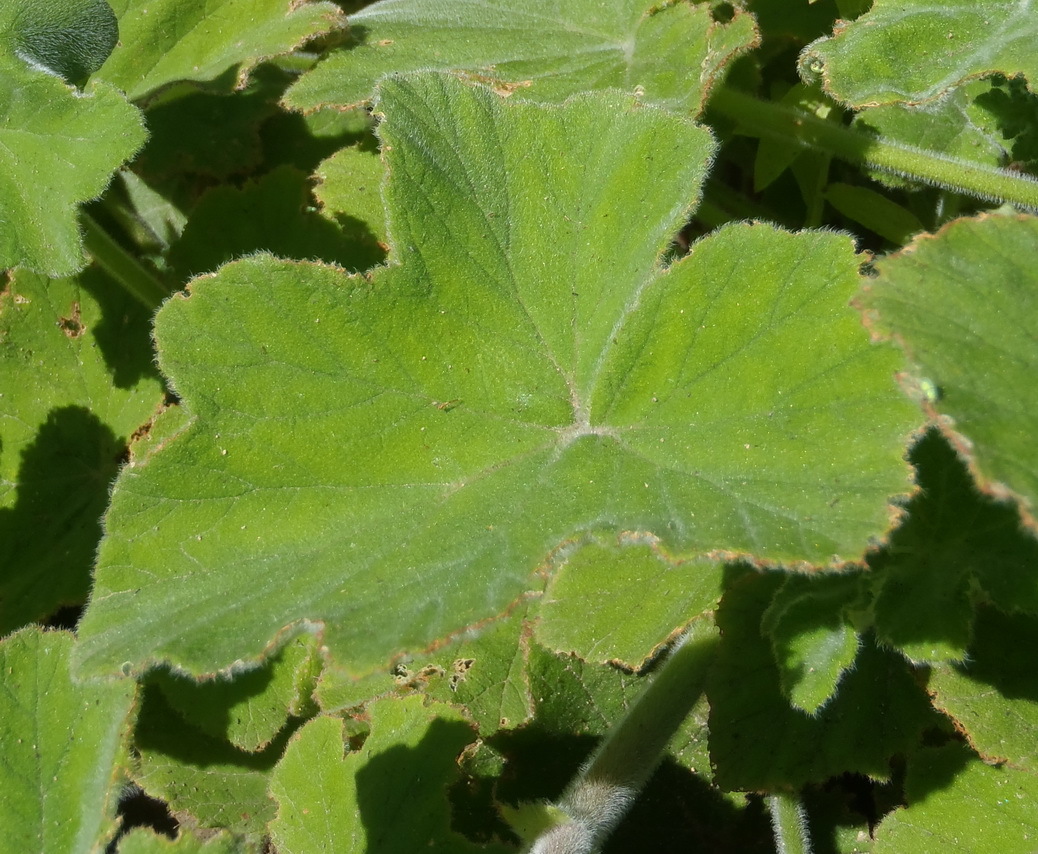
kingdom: Plantae
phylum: Tracheophyta
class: Magnoliopsida
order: Geraniales
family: Geraniaceae
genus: Pelargonium
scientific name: Pelargonium tomentosum
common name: Peppermint-scented geranium
